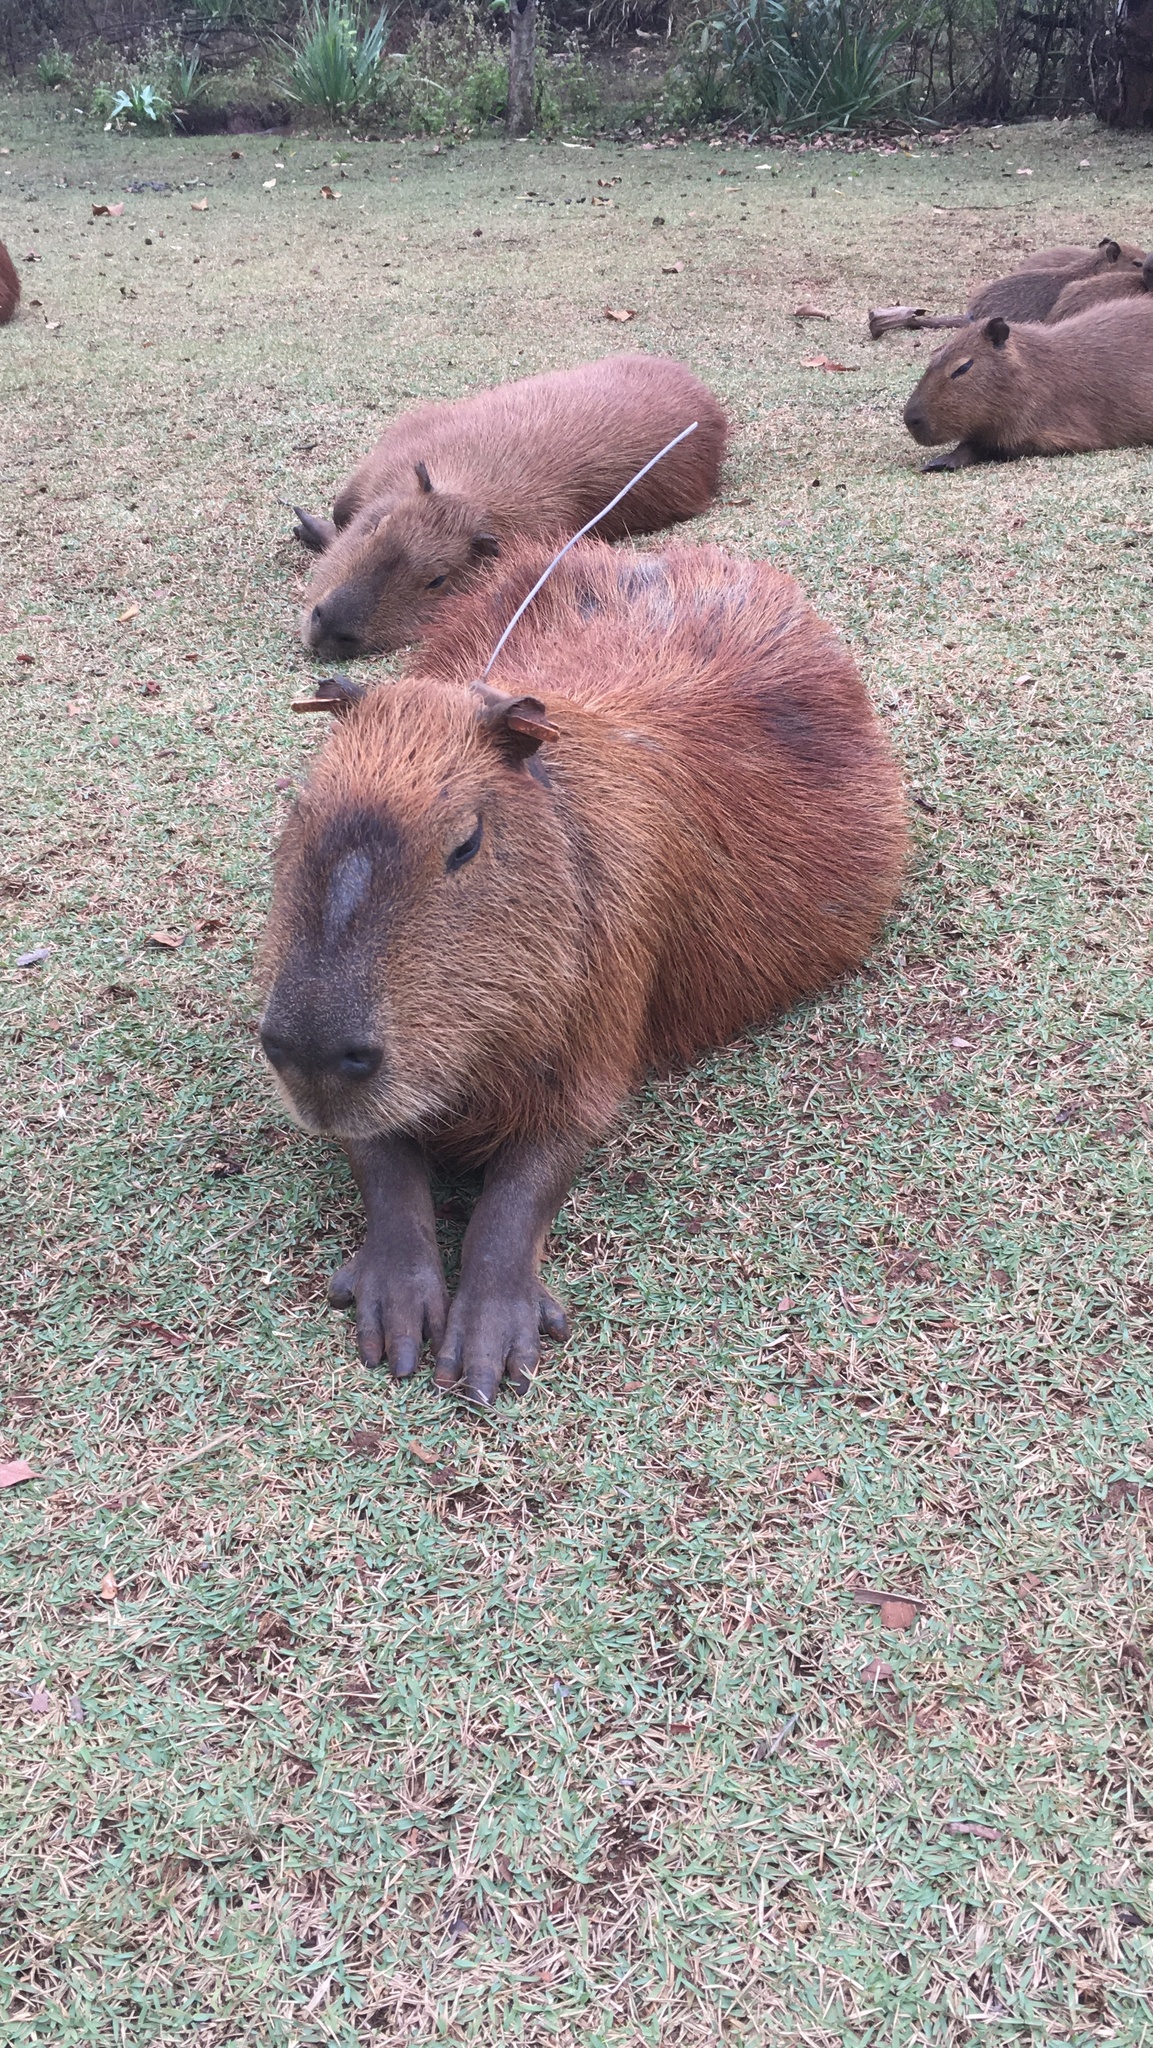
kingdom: Animalia
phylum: Chordata
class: Mammalia
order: Rodentia
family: Caviidae
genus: Hydrochoerus
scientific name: Hydrochoerus hydrochaeris
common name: Capybara
